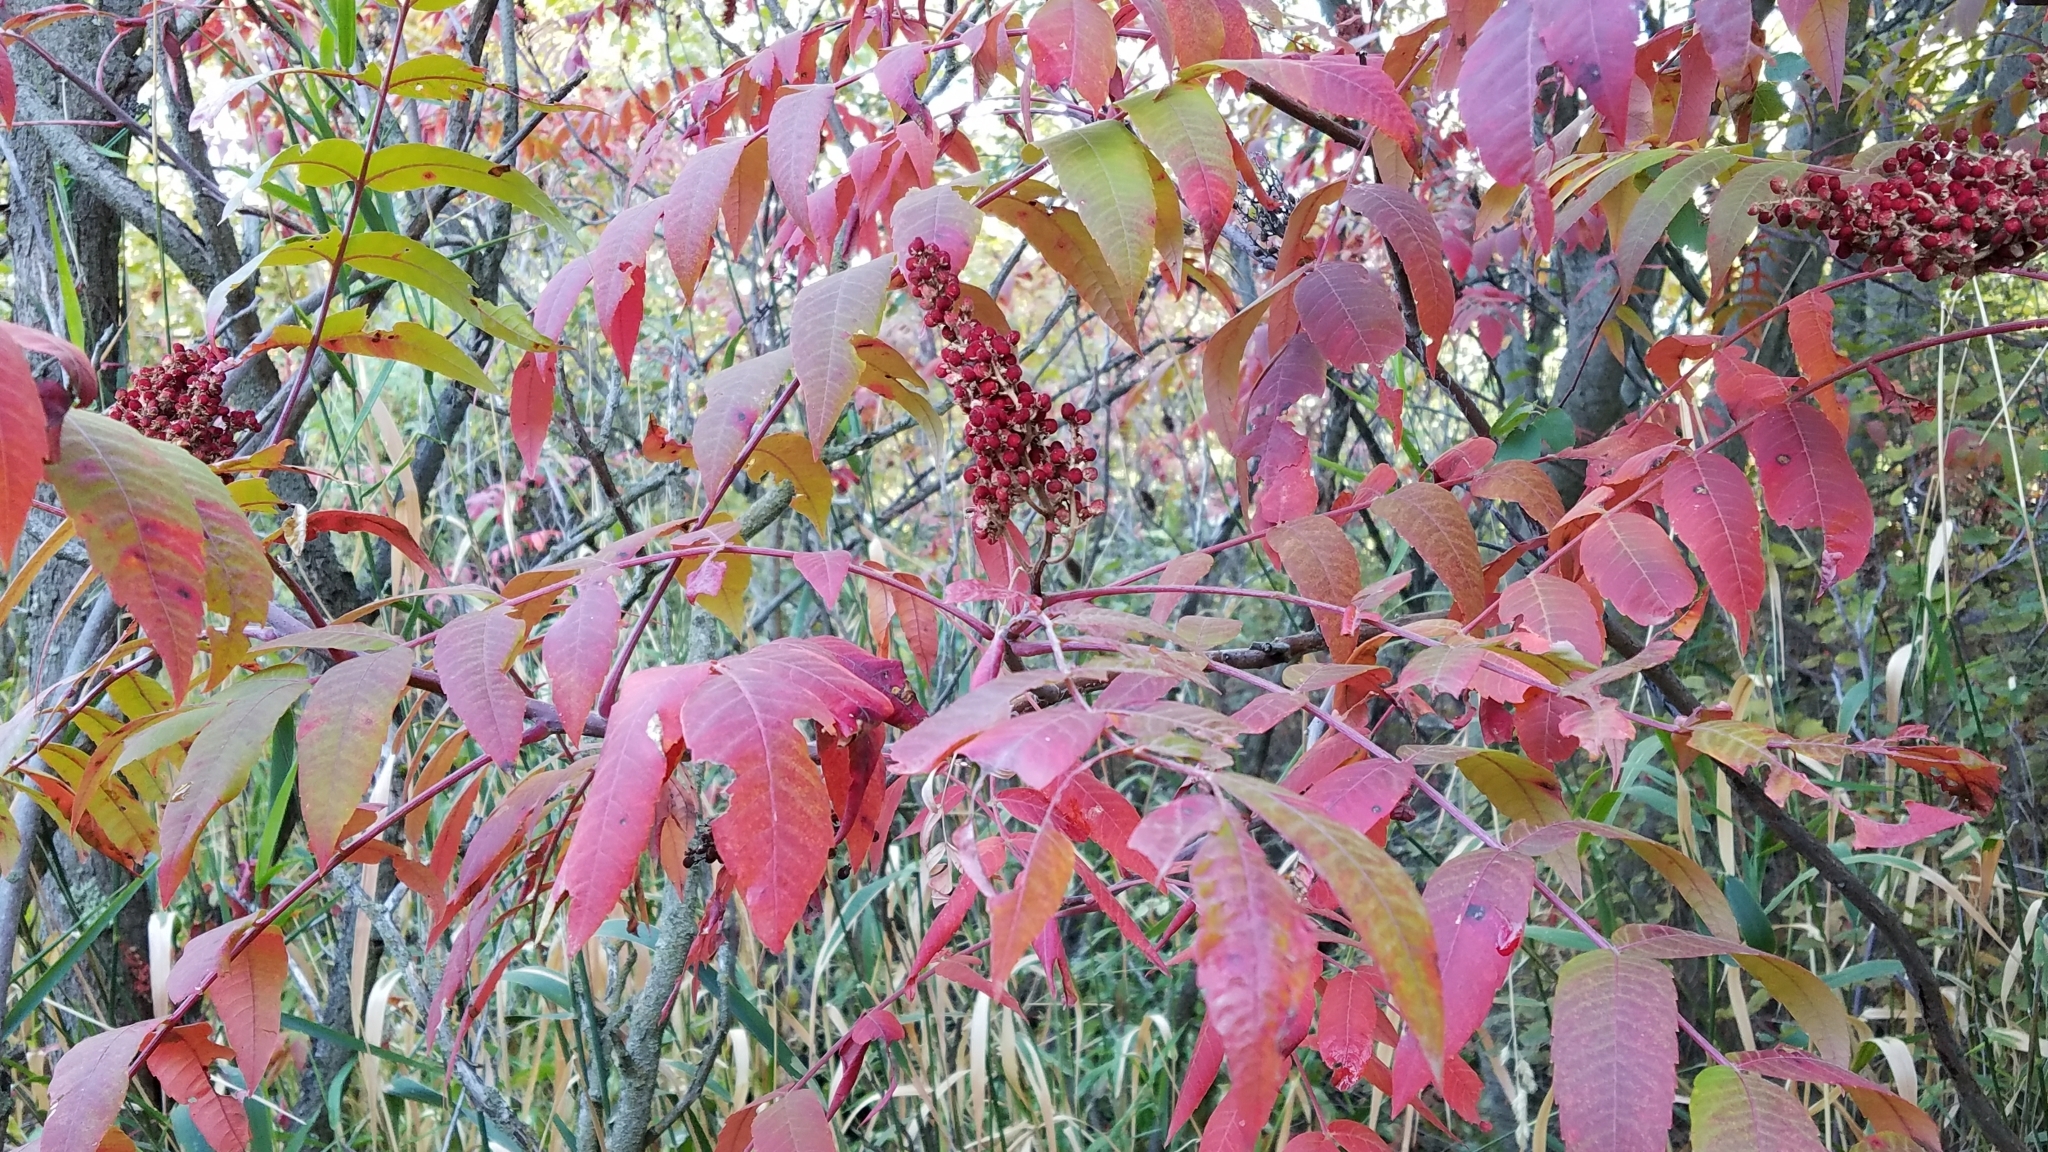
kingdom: Plantae
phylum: Tracheophyta
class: Magnoliopsida
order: Sapindales
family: Anacardiaceae
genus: Rhus
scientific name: Rhus glabra
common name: Scarlet sumac
